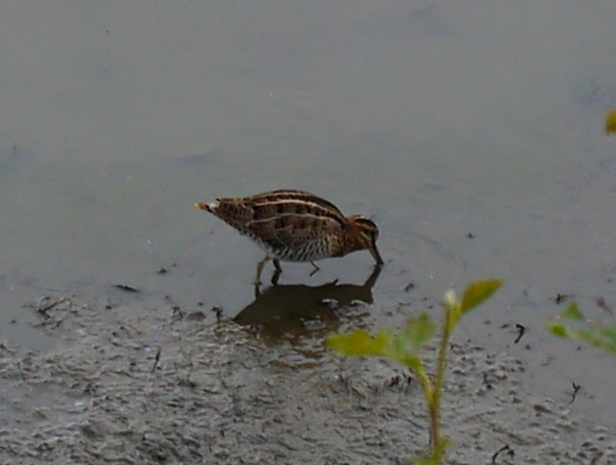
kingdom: Animalia
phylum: Chordata
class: Aves
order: Charadriiformes
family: Scolopacidae
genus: Gallinago
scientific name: Gallinago delicata
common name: Wilson's snipe
